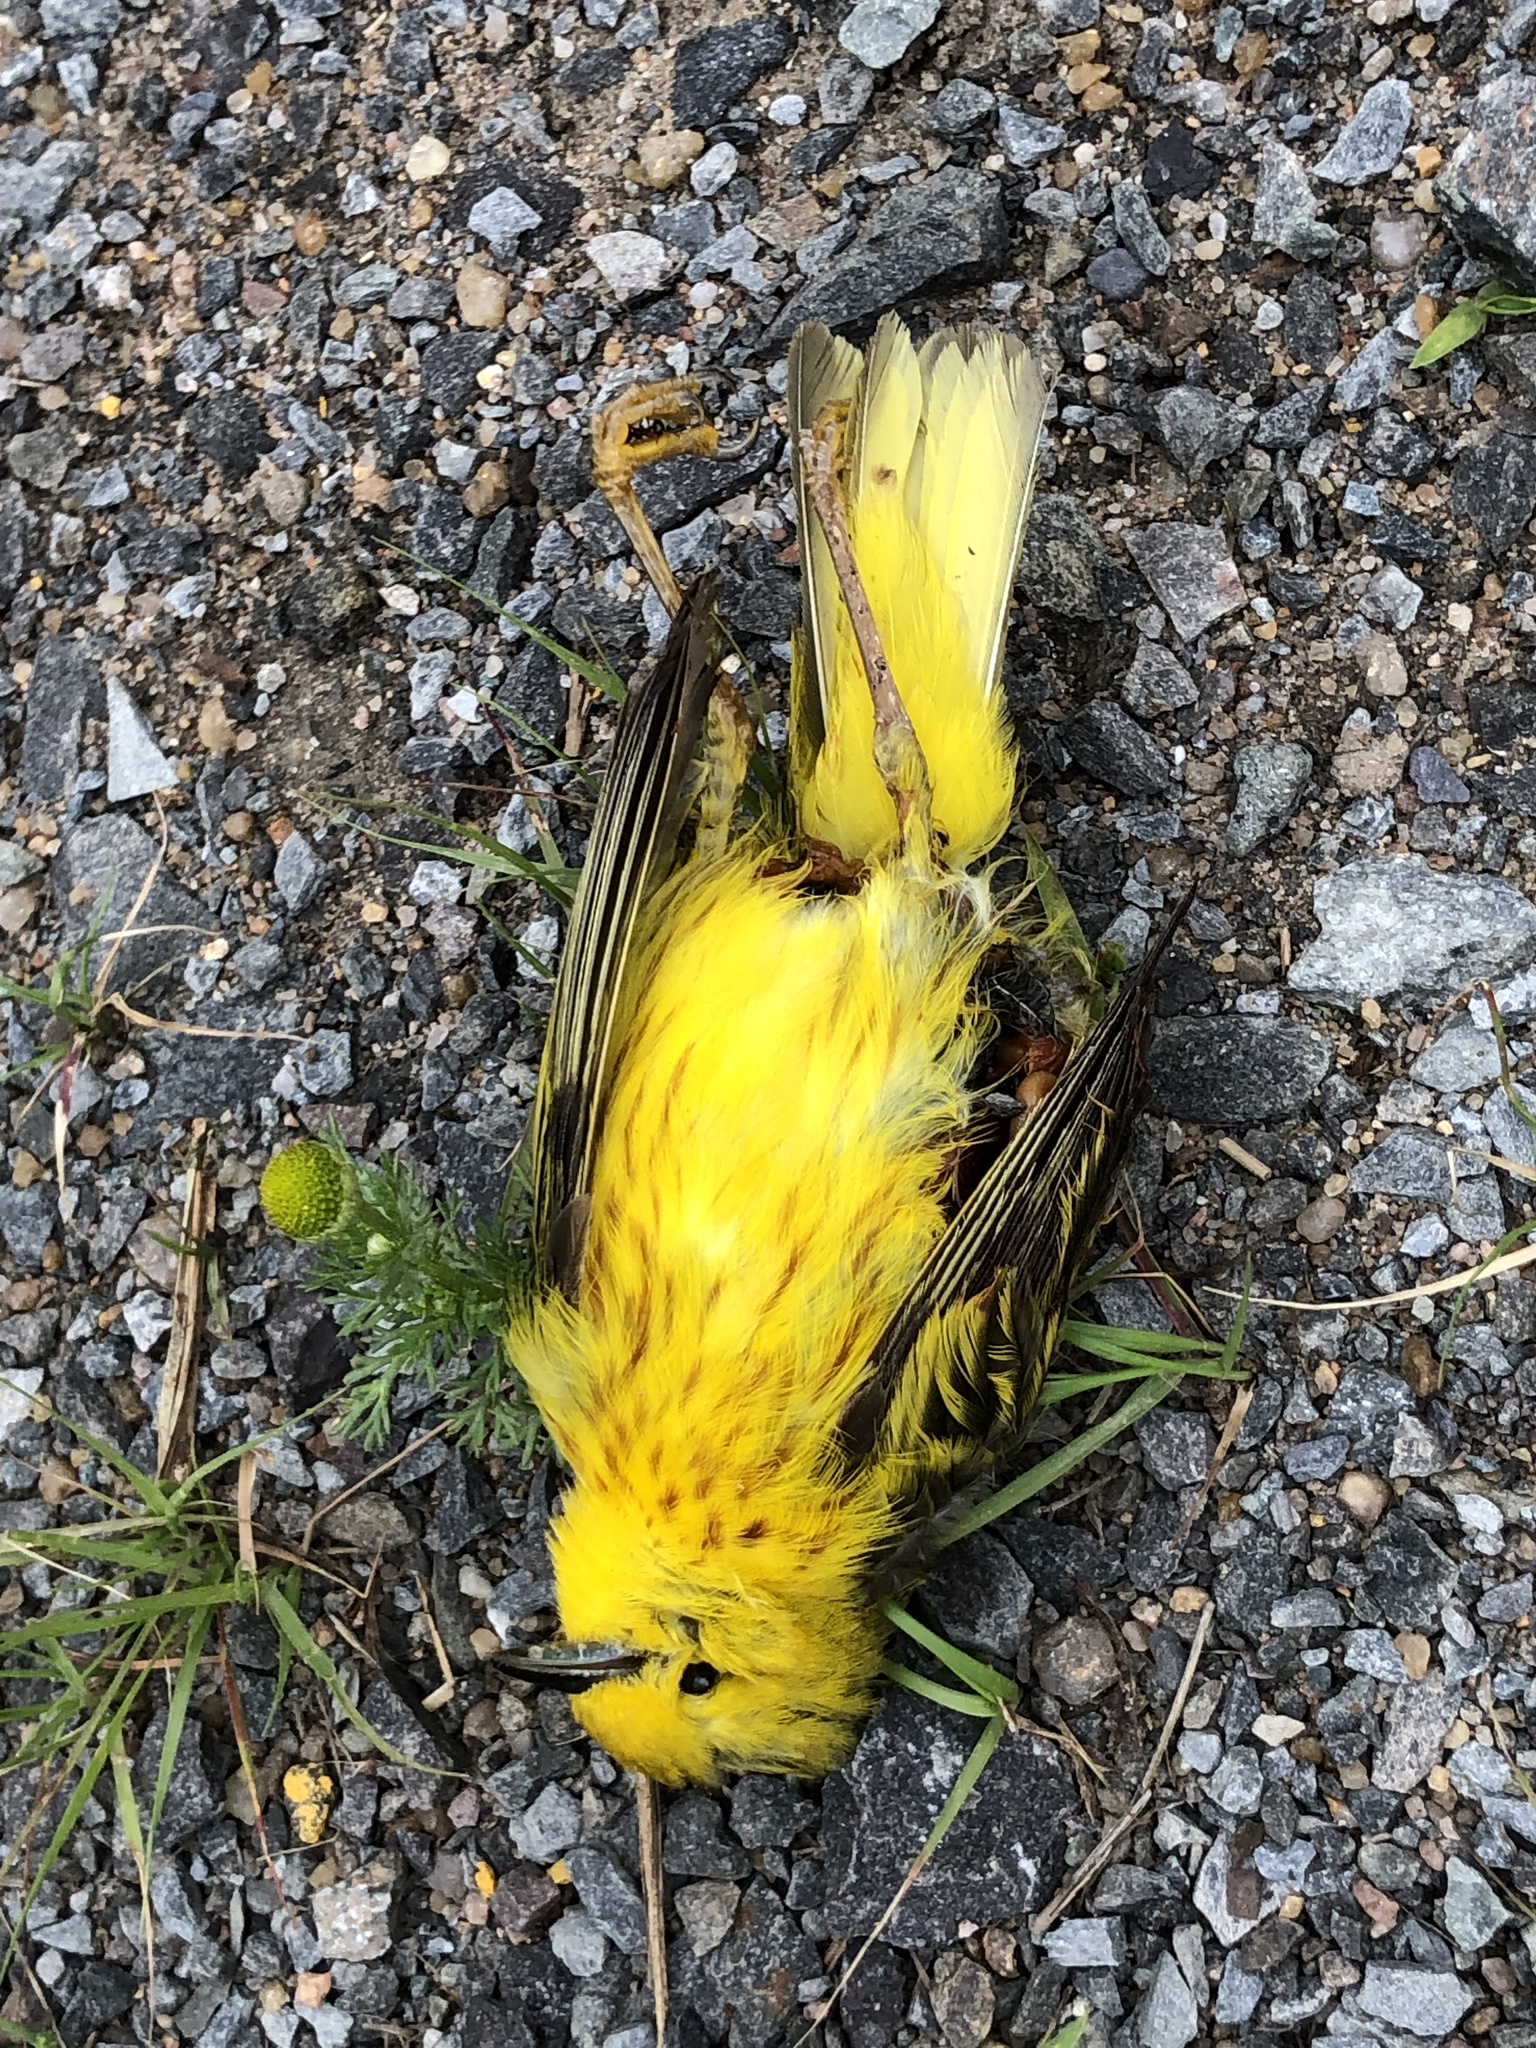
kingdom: Animalia
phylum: Chordata
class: Aves
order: Passeriformes
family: Parulidae
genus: Setophaga
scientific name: Setophaga petechia
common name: Yellow warbler
